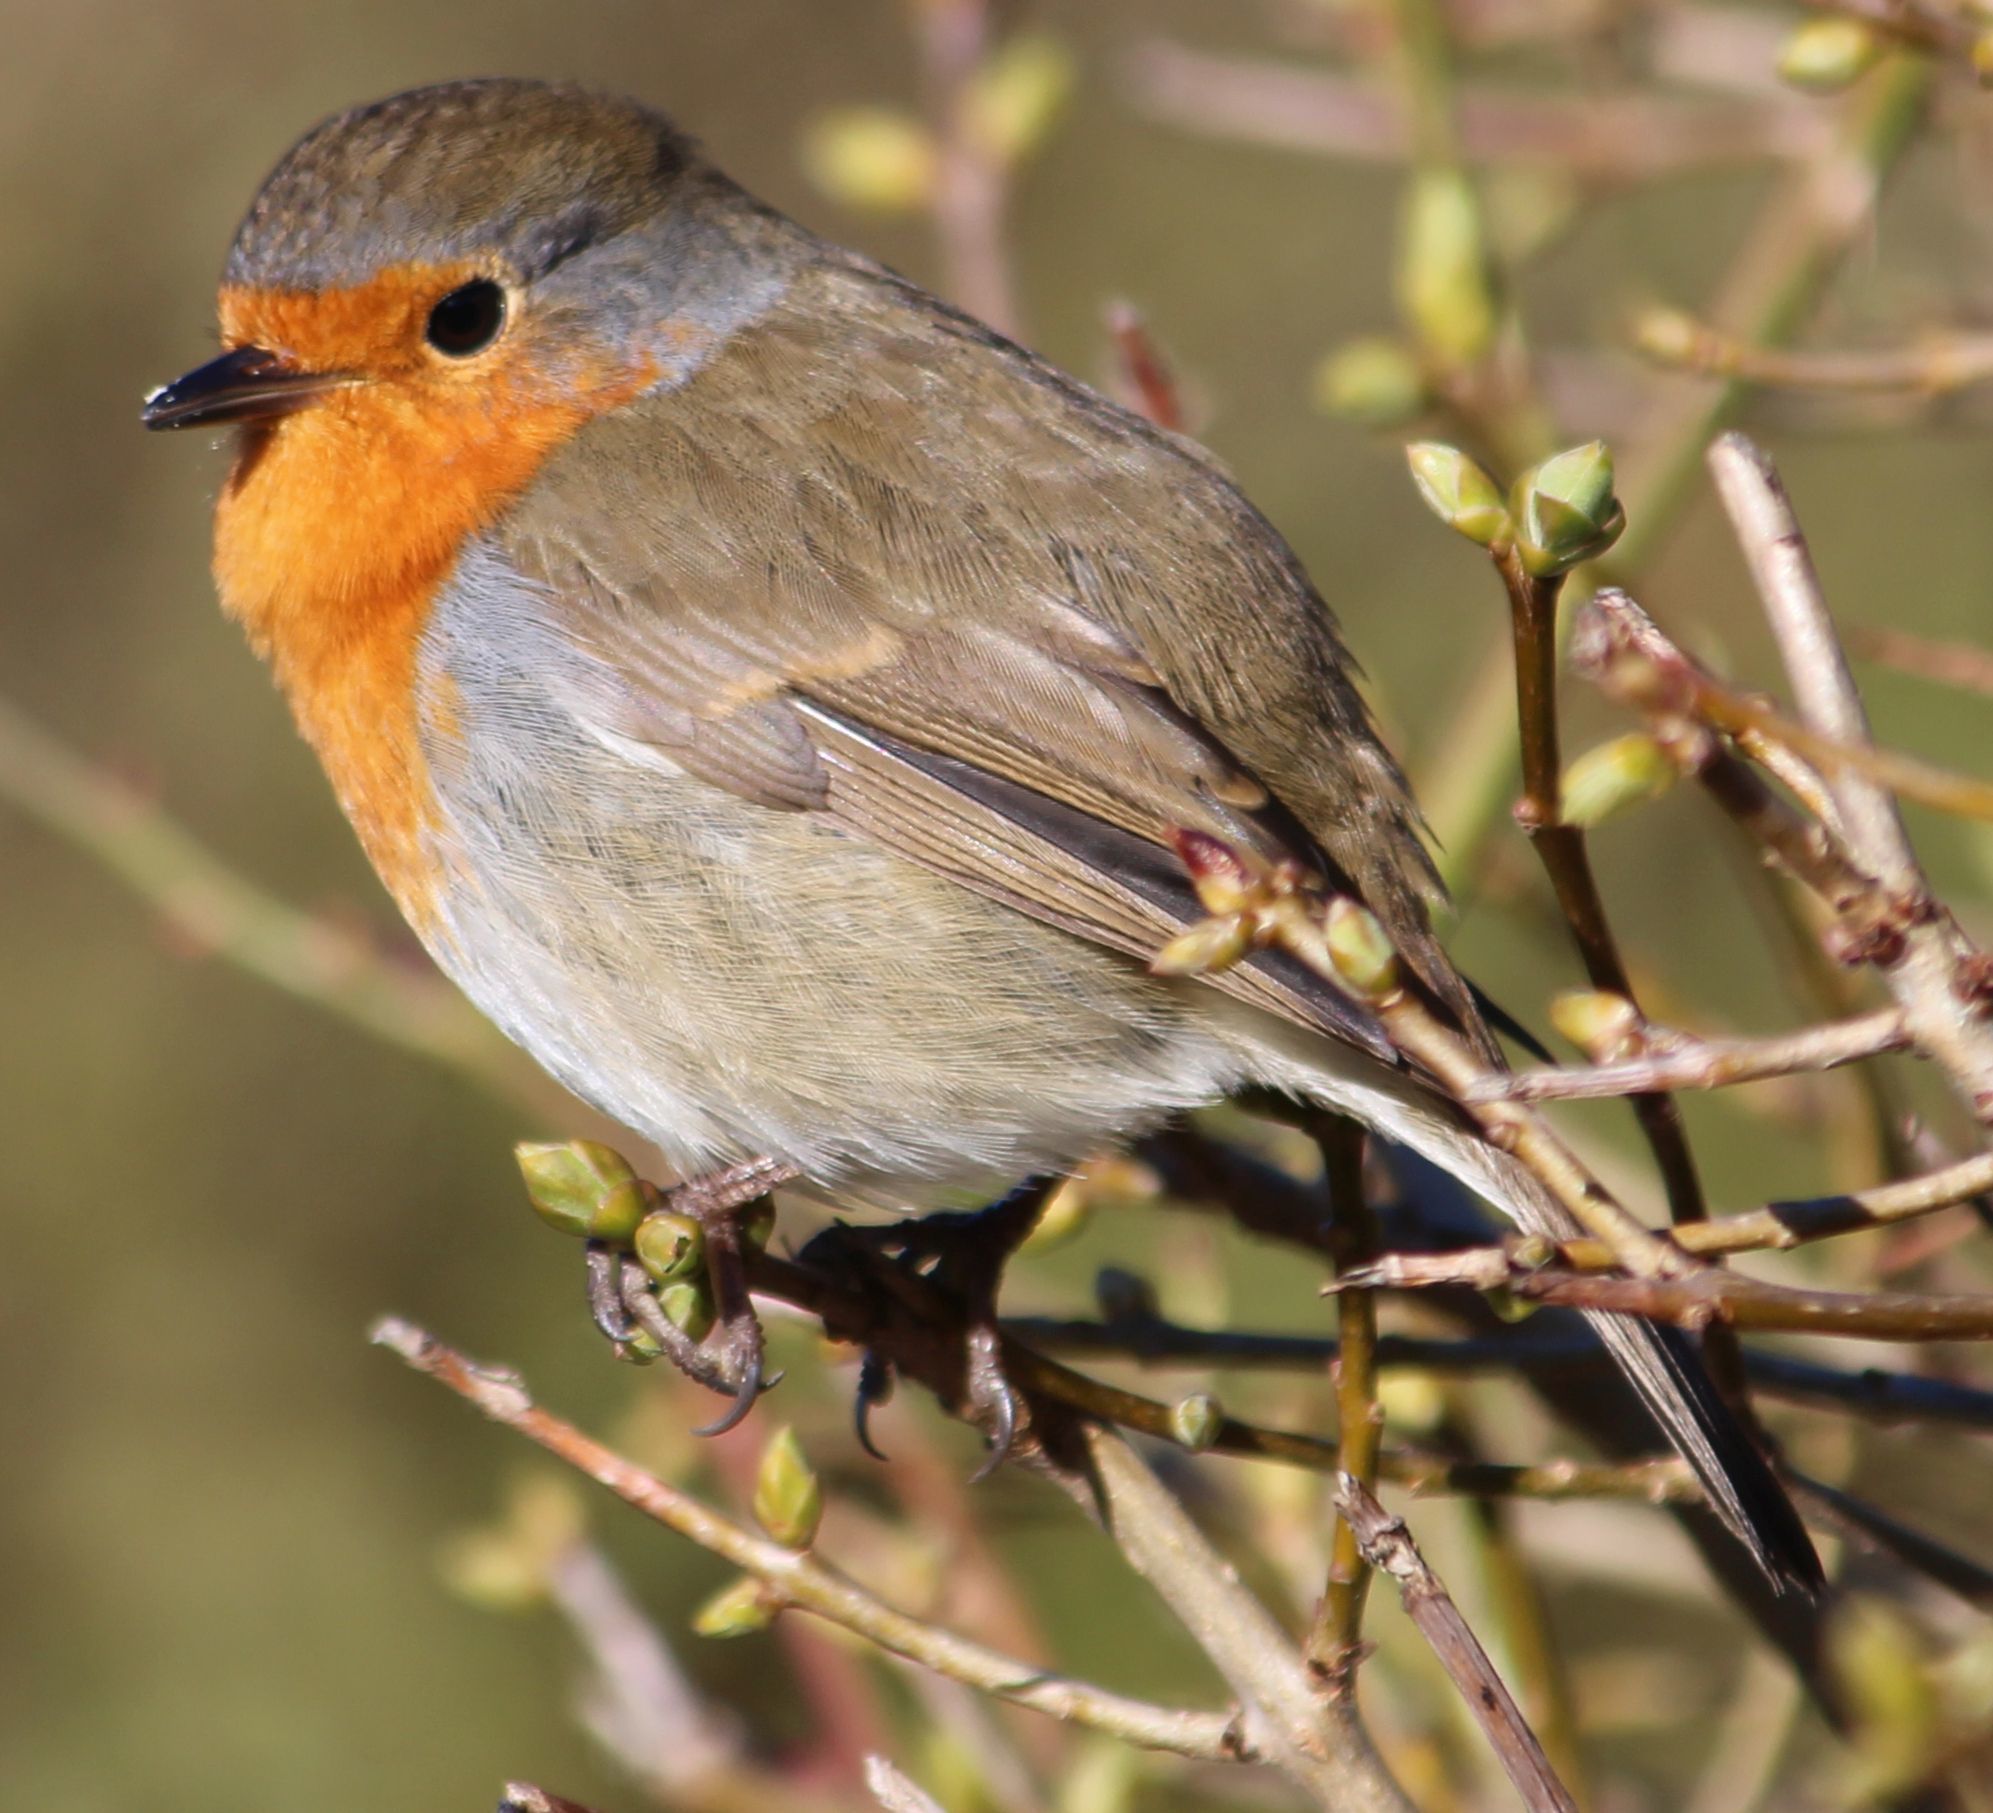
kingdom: Animalia
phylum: Chordata
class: Aves
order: Passeriformes
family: Muscicapidae
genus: Erithacus
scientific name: Erithacus rubecula
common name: European robin
